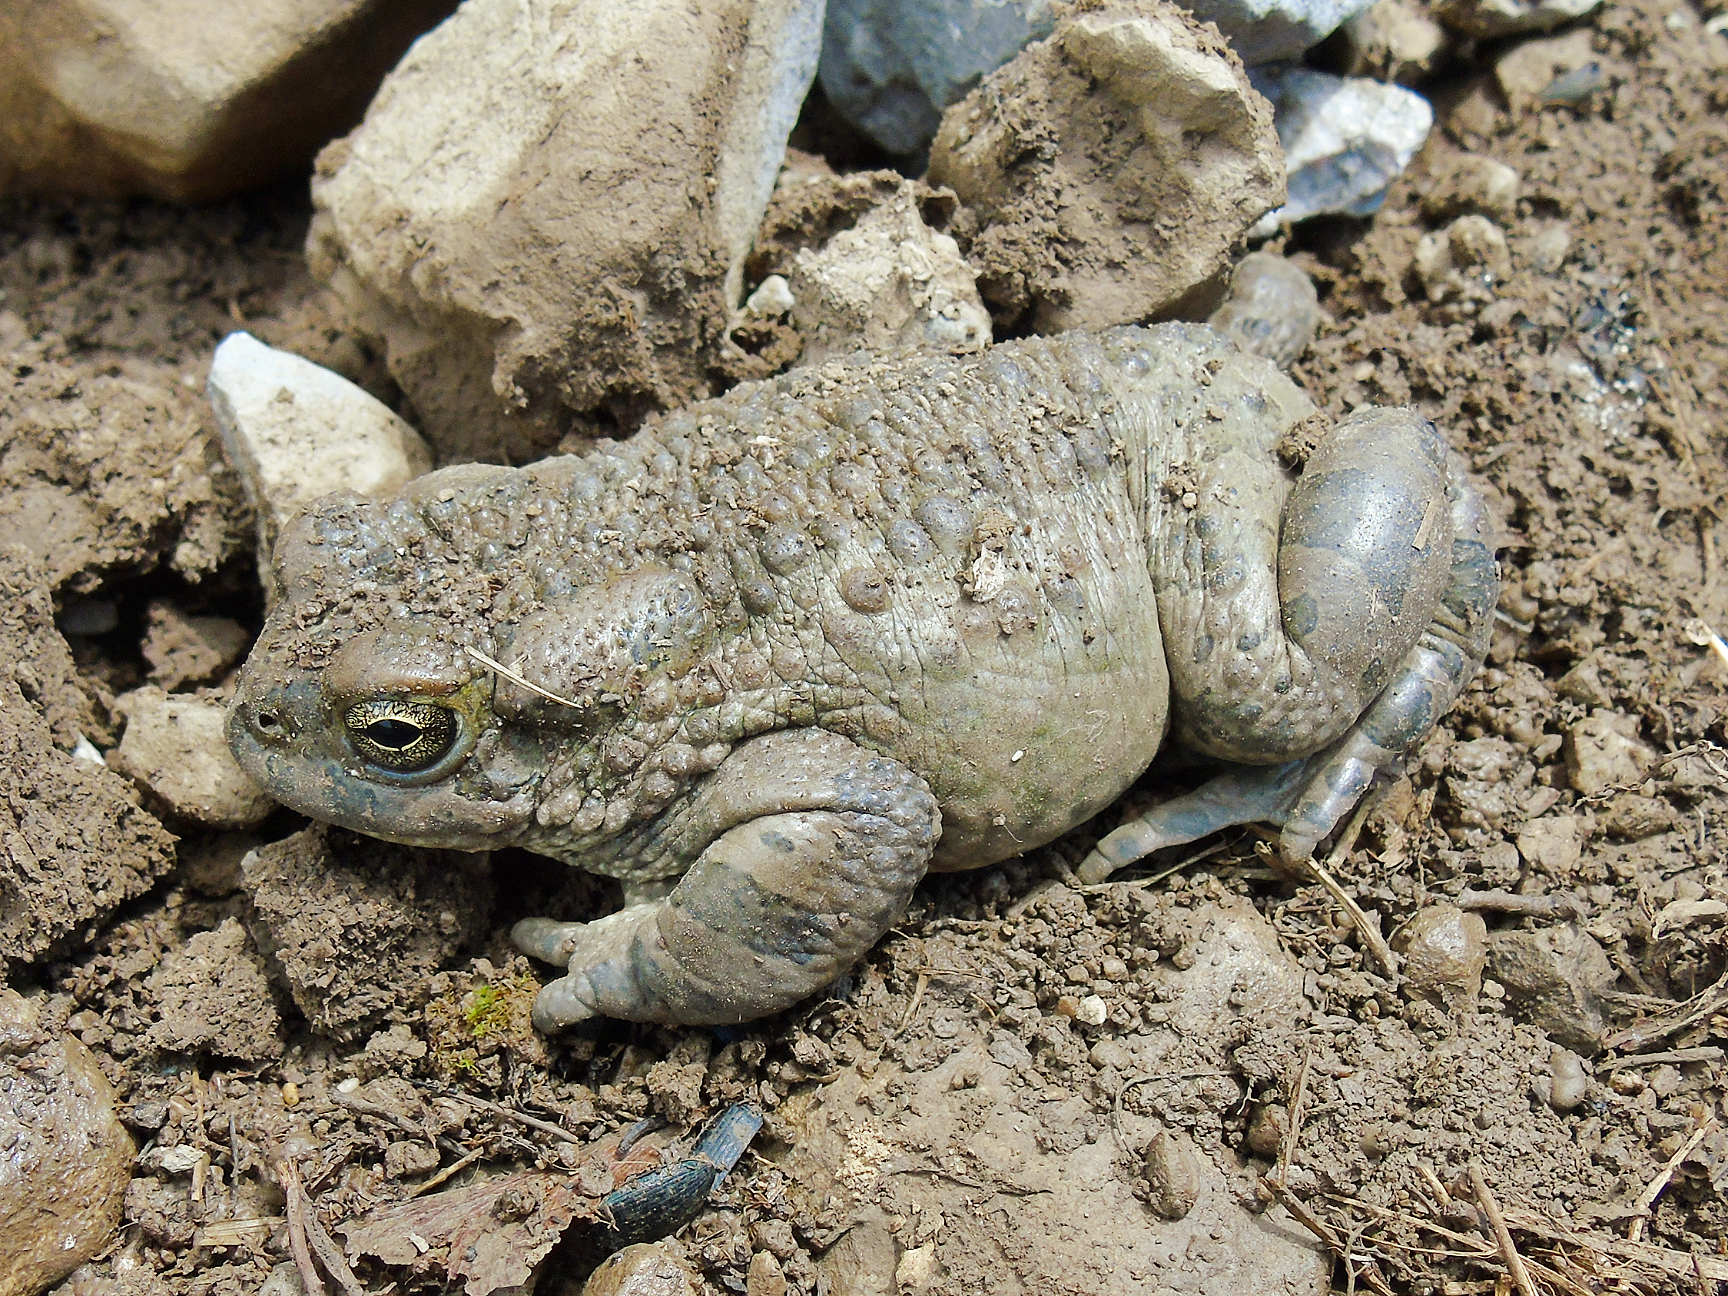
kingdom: Animalia
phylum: Chordata
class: Amphibia
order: Anura
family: Bufonidae
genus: Bufotes
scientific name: Bufotes pewzowi
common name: Xinjiang toad
